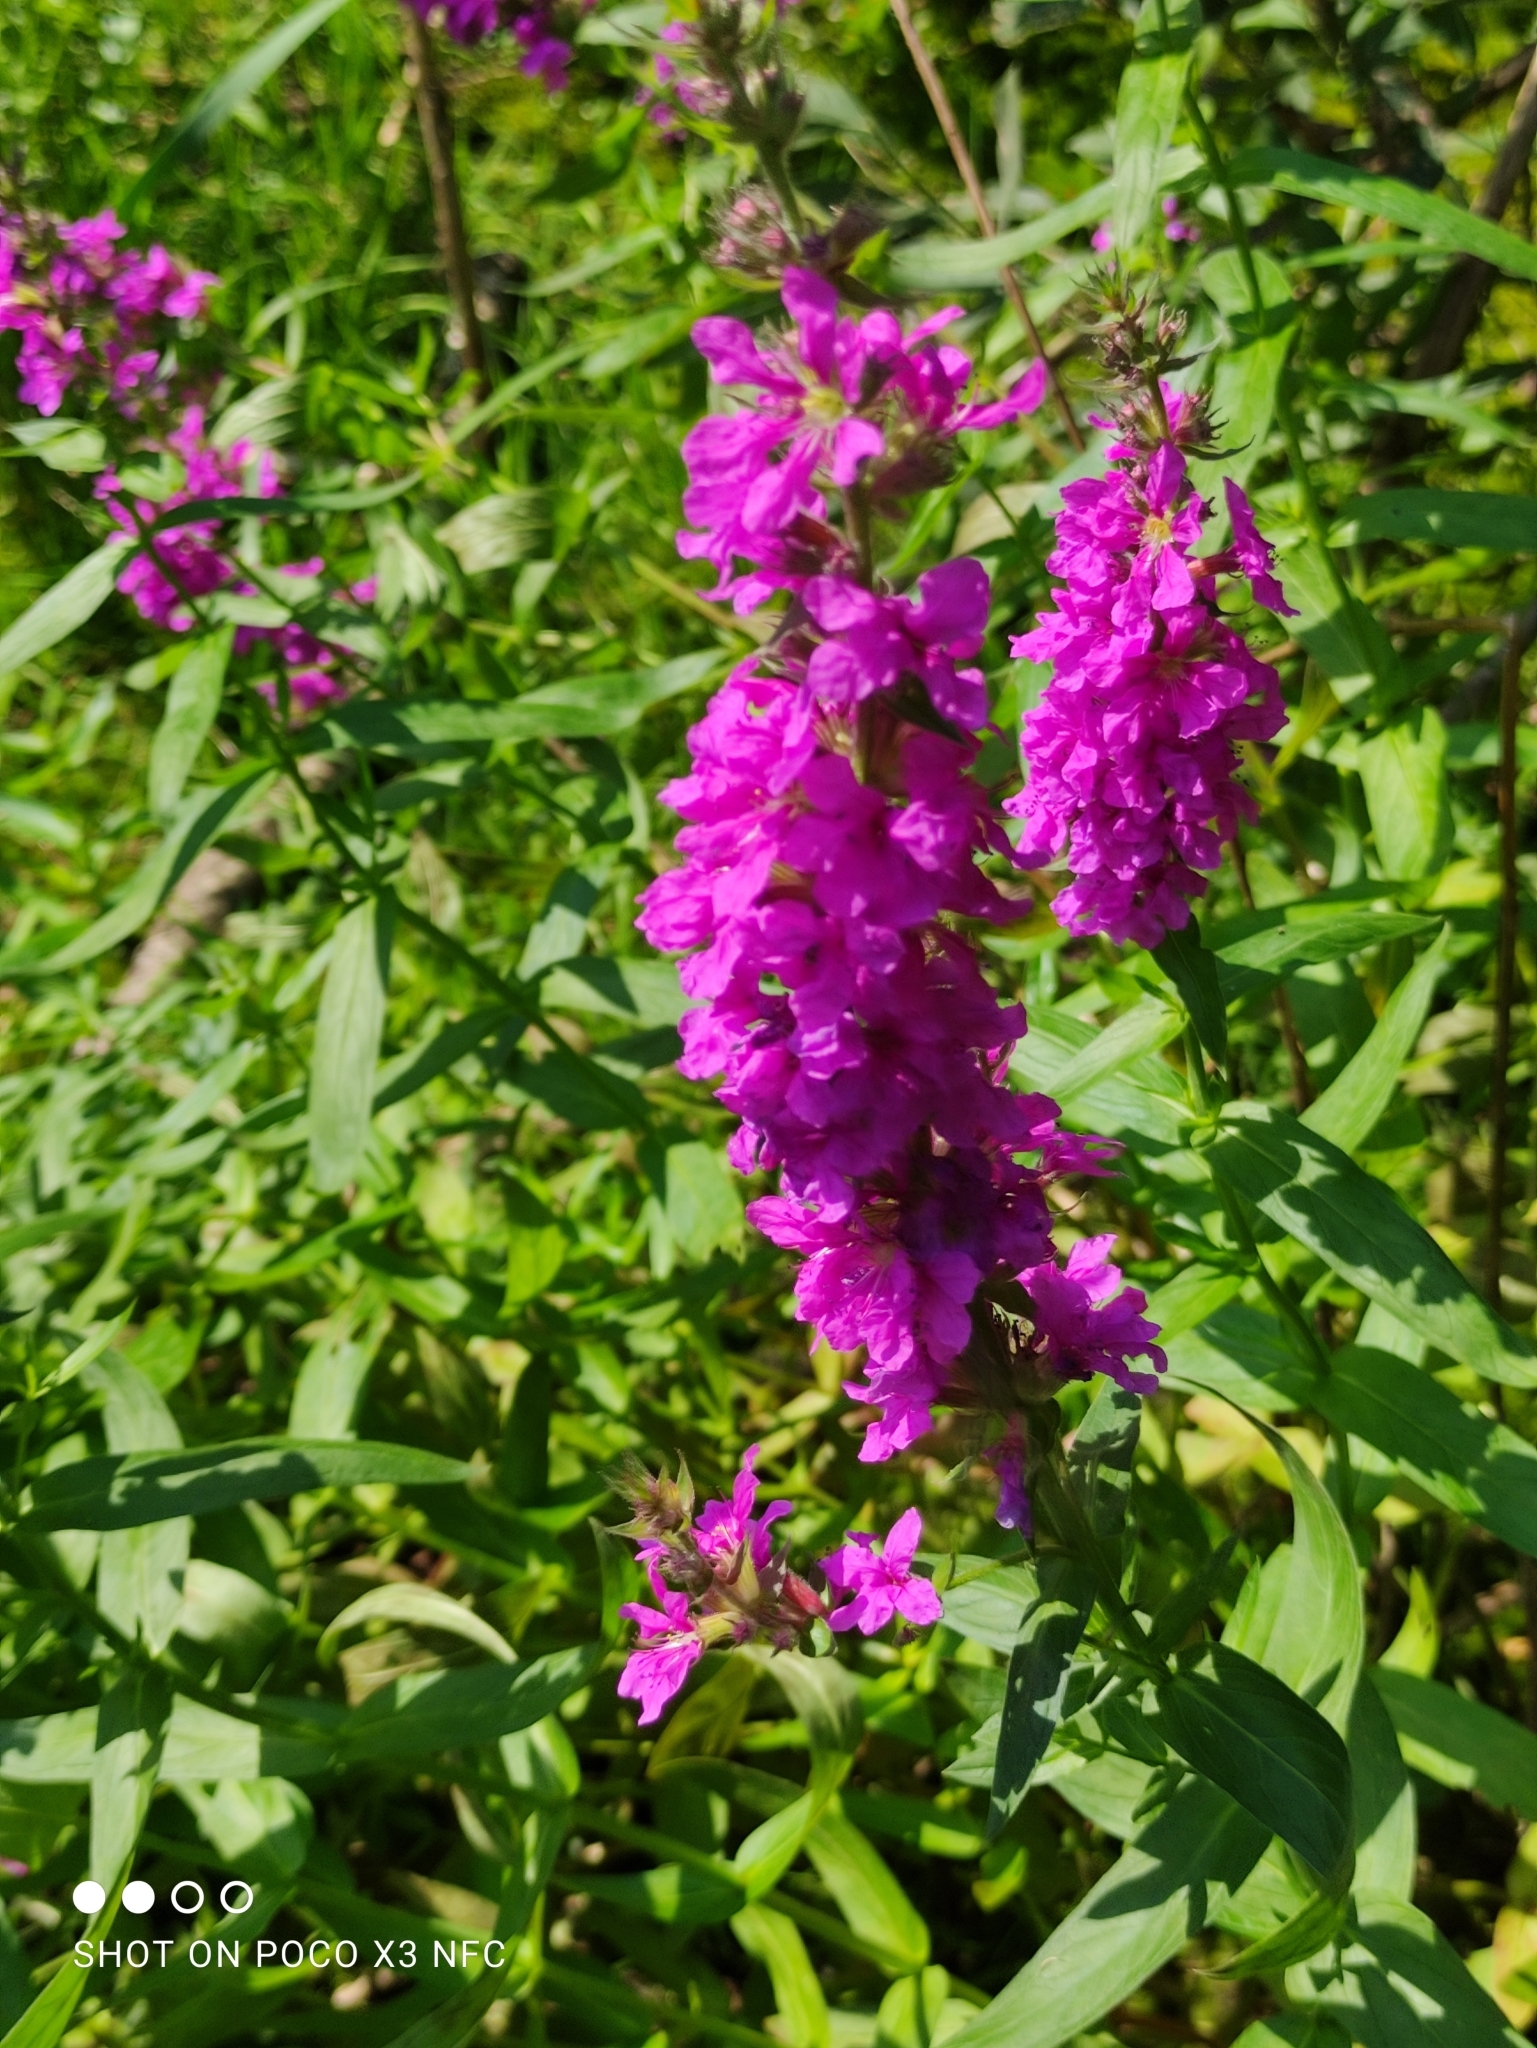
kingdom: Plantae
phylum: Tracheophyta
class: Magnoliopsida
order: Myrtales
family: Lythraceae
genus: Lythrum
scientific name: Lythrum salicaria
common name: Purple loosestrife
